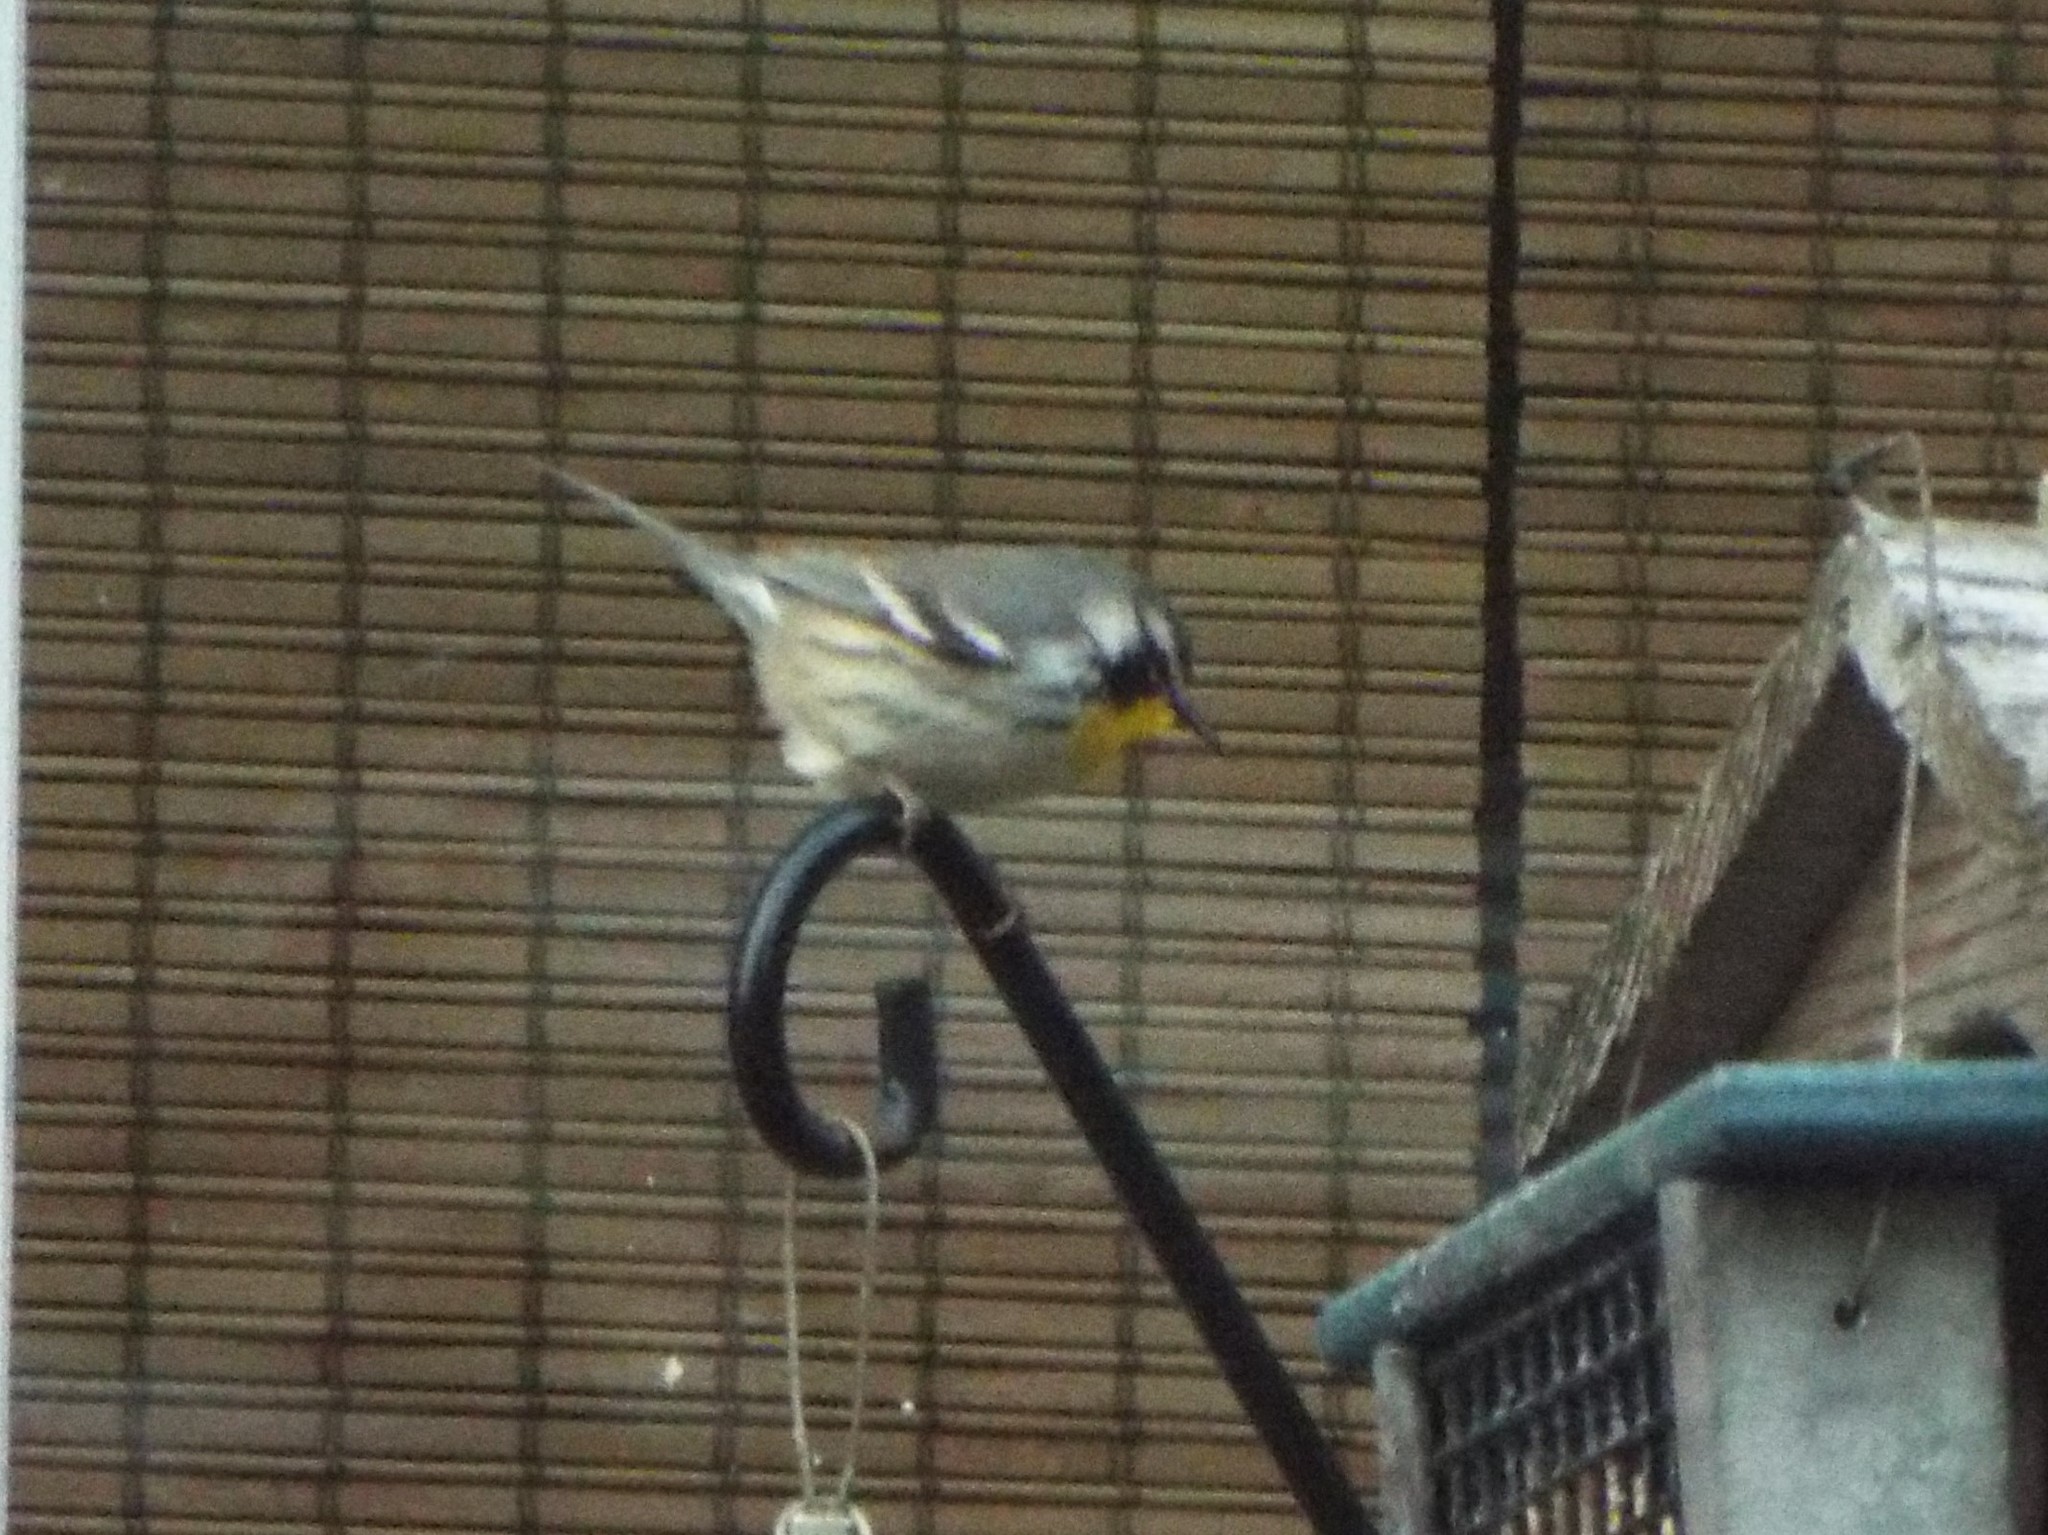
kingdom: Animalia
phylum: Chordata
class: Aves
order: Passeriformes
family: Parulidae
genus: Setophaga
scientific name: Setophaga dominica
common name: Yellow-throated warbler
